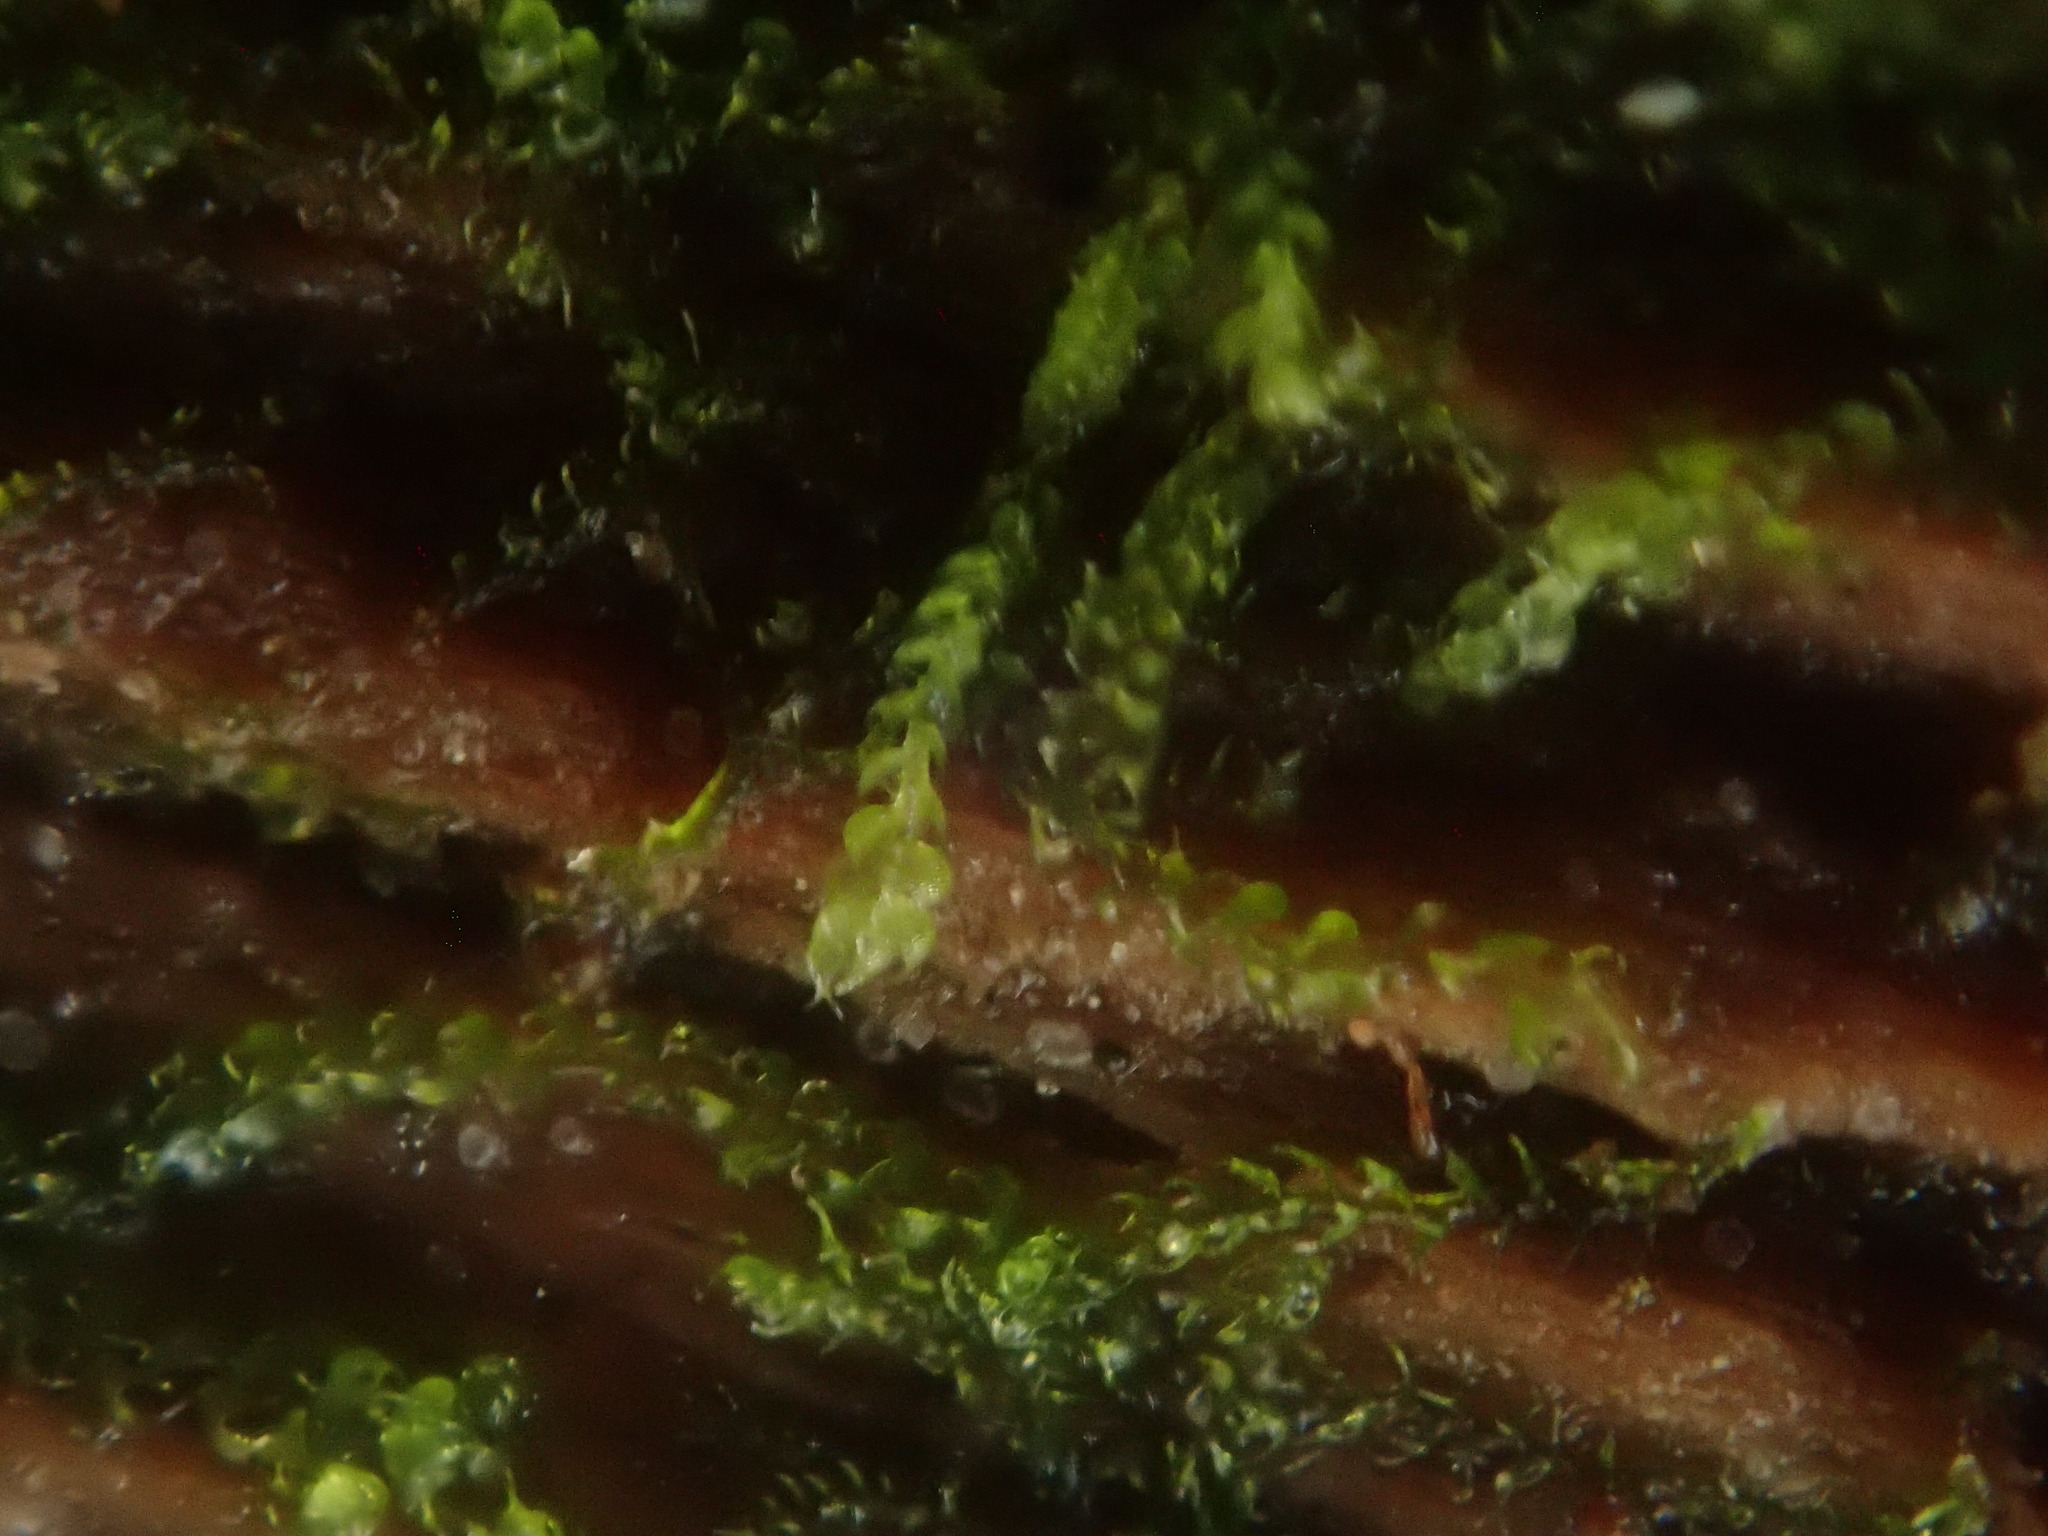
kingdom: Plantae
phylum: Marchantiophyta
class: Jungermanniopsida
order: Jungermanniales
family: Cephaloziaceae
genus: Nowellia
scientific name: Nowellia curvifolia
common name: Wood rustwort
